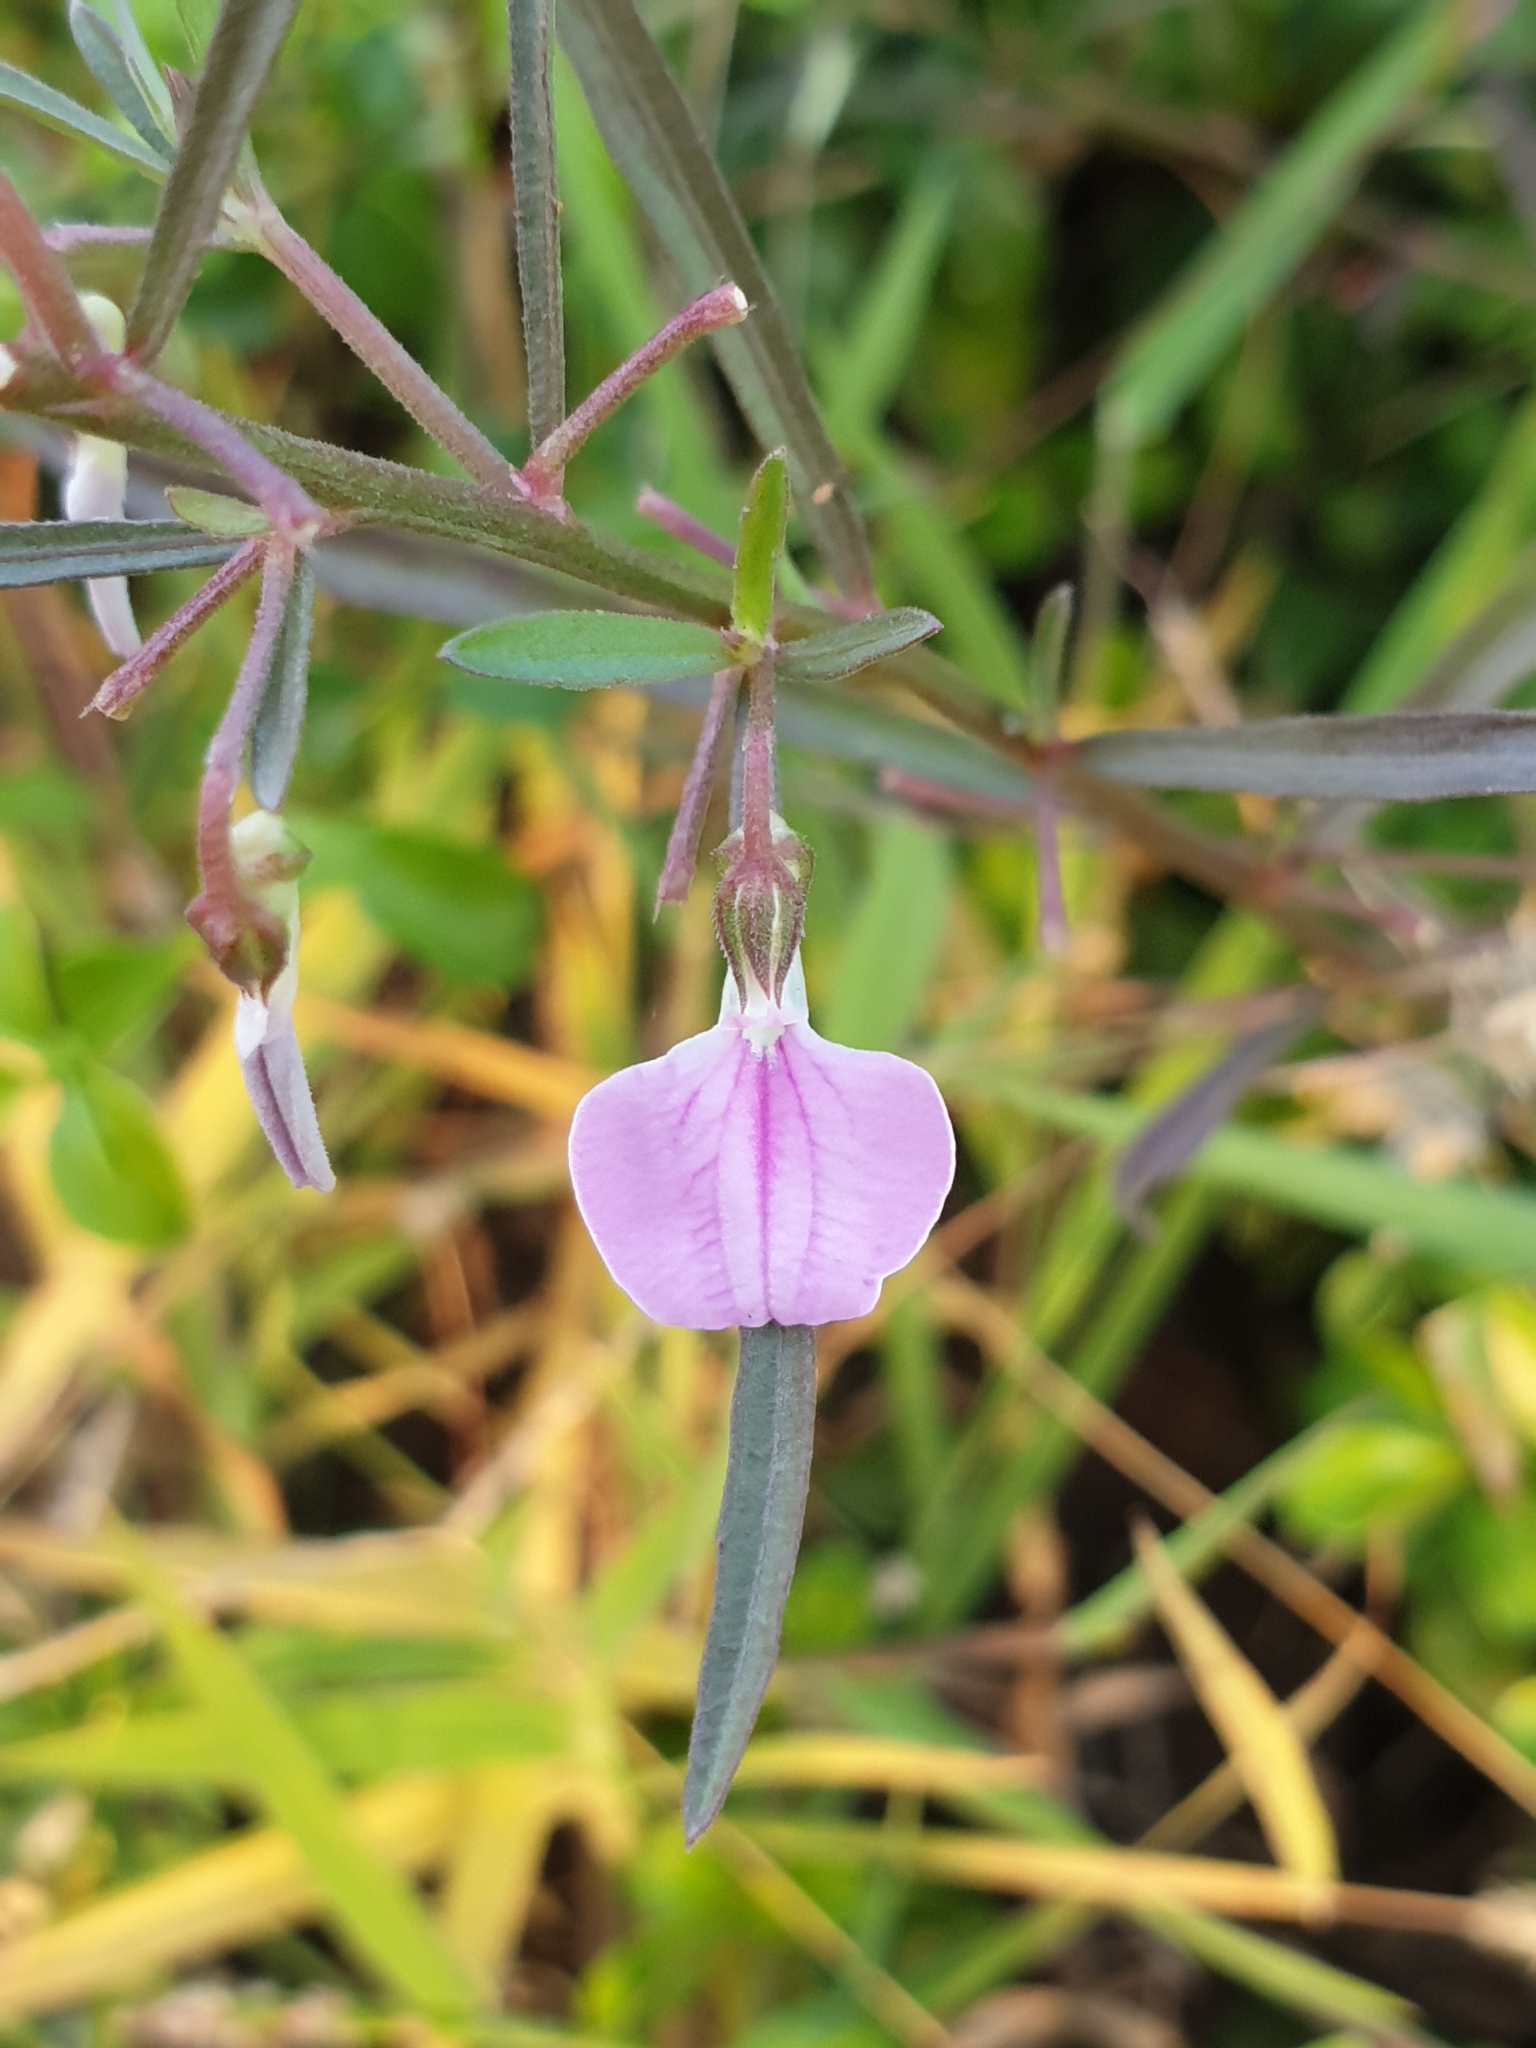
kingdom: Plantae
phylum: Tracheophyta
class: Magnoliopsida
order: Malpighiales
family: Violaceae
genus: Pigea
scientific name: Pigea enneasperma
